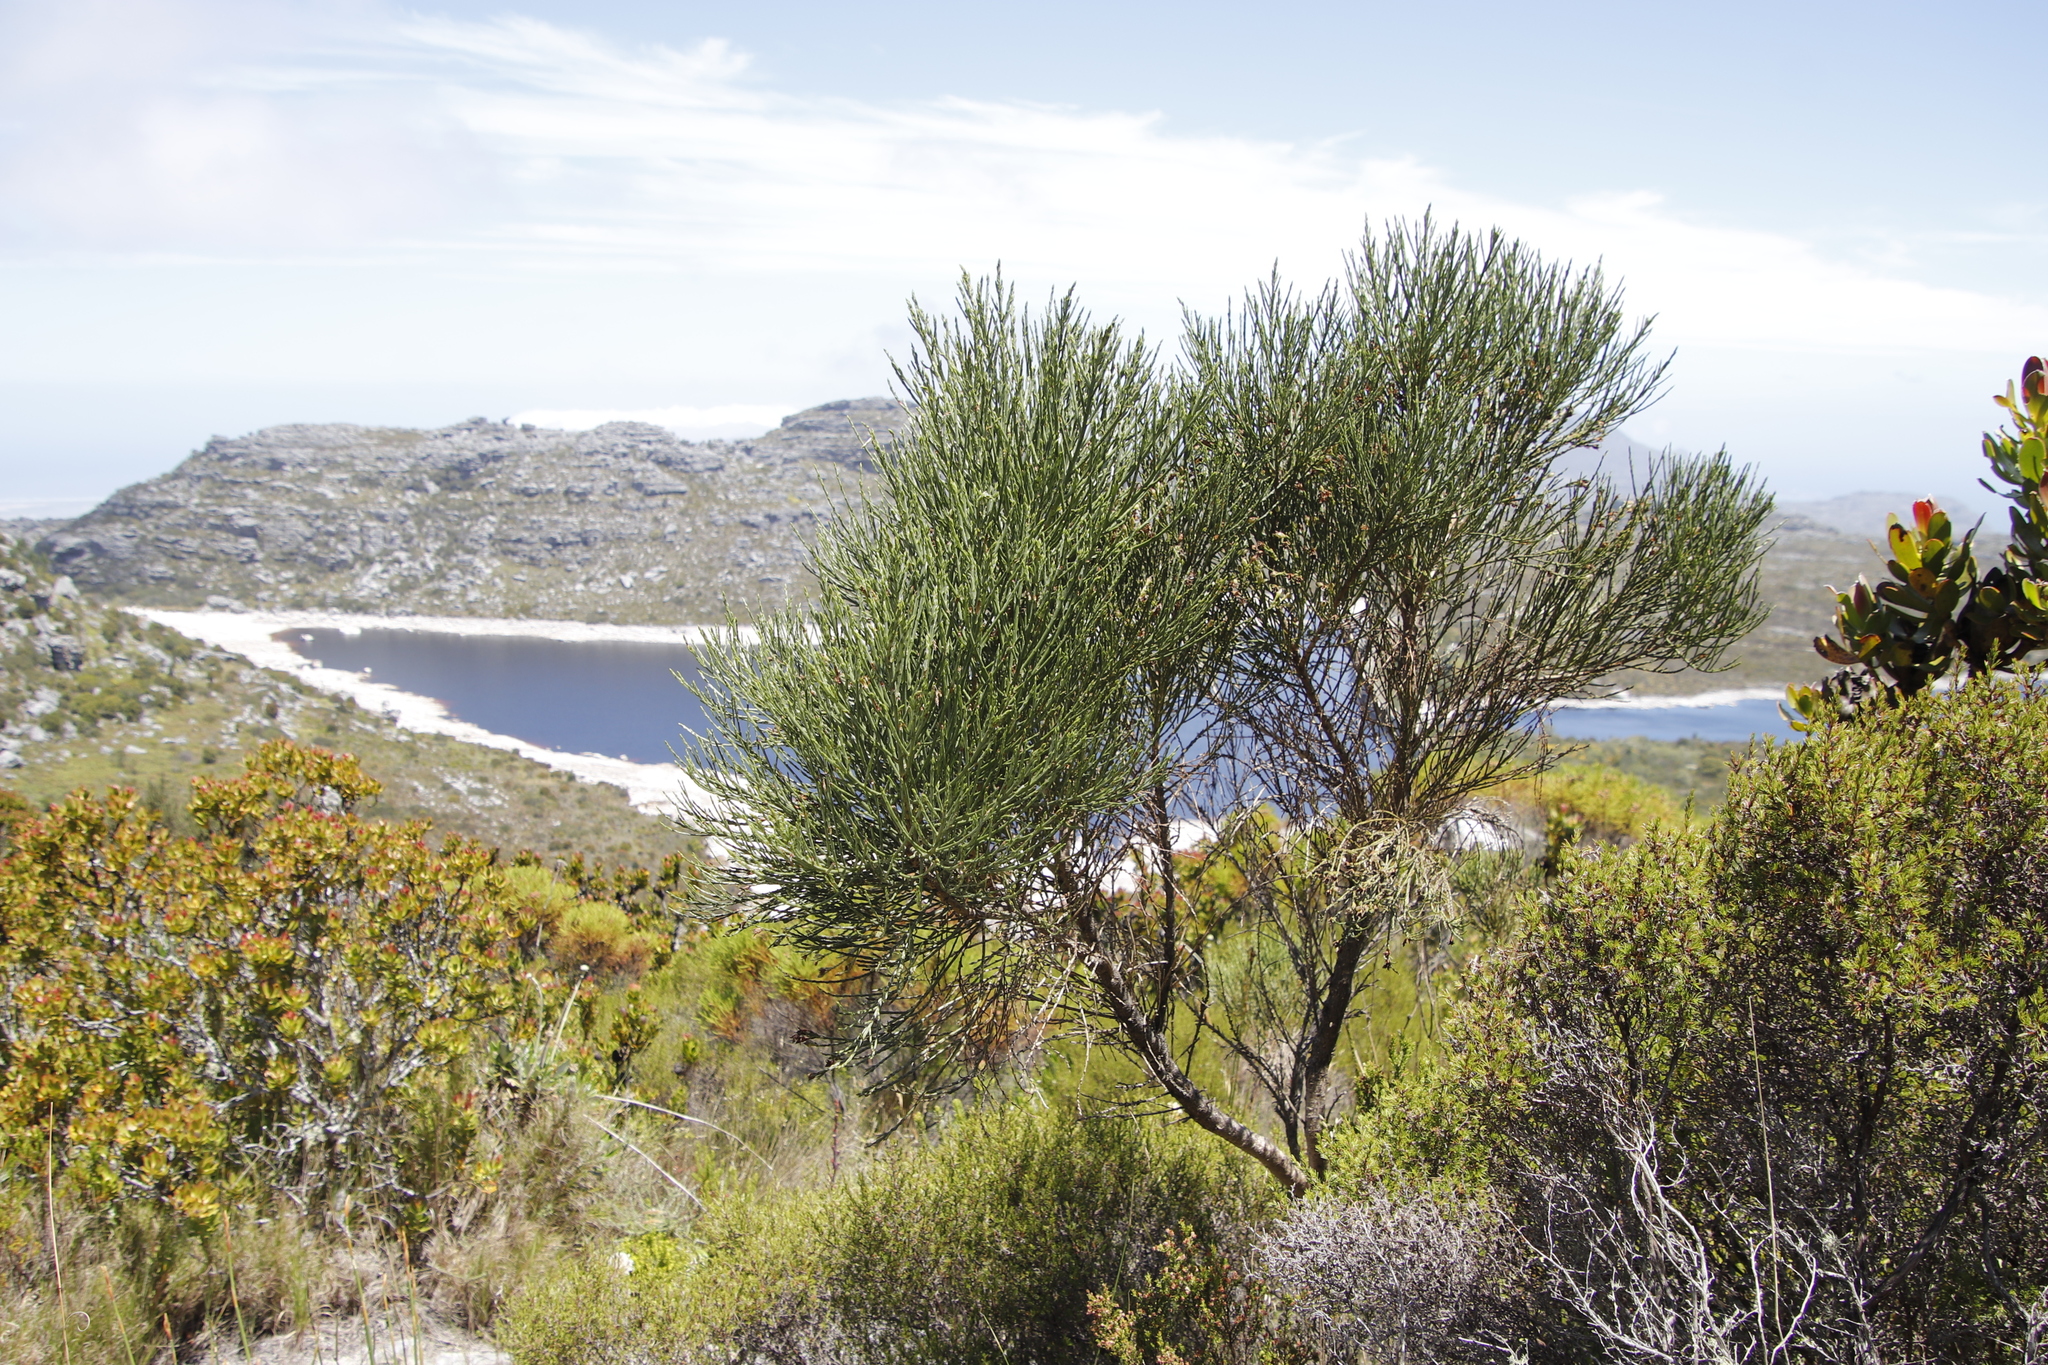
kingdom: Plantae
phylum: Tracheophyta
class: Magnoliopsida
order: Fabales
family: Fabaceae
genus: Psoralea
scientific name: Psoralea congesta
